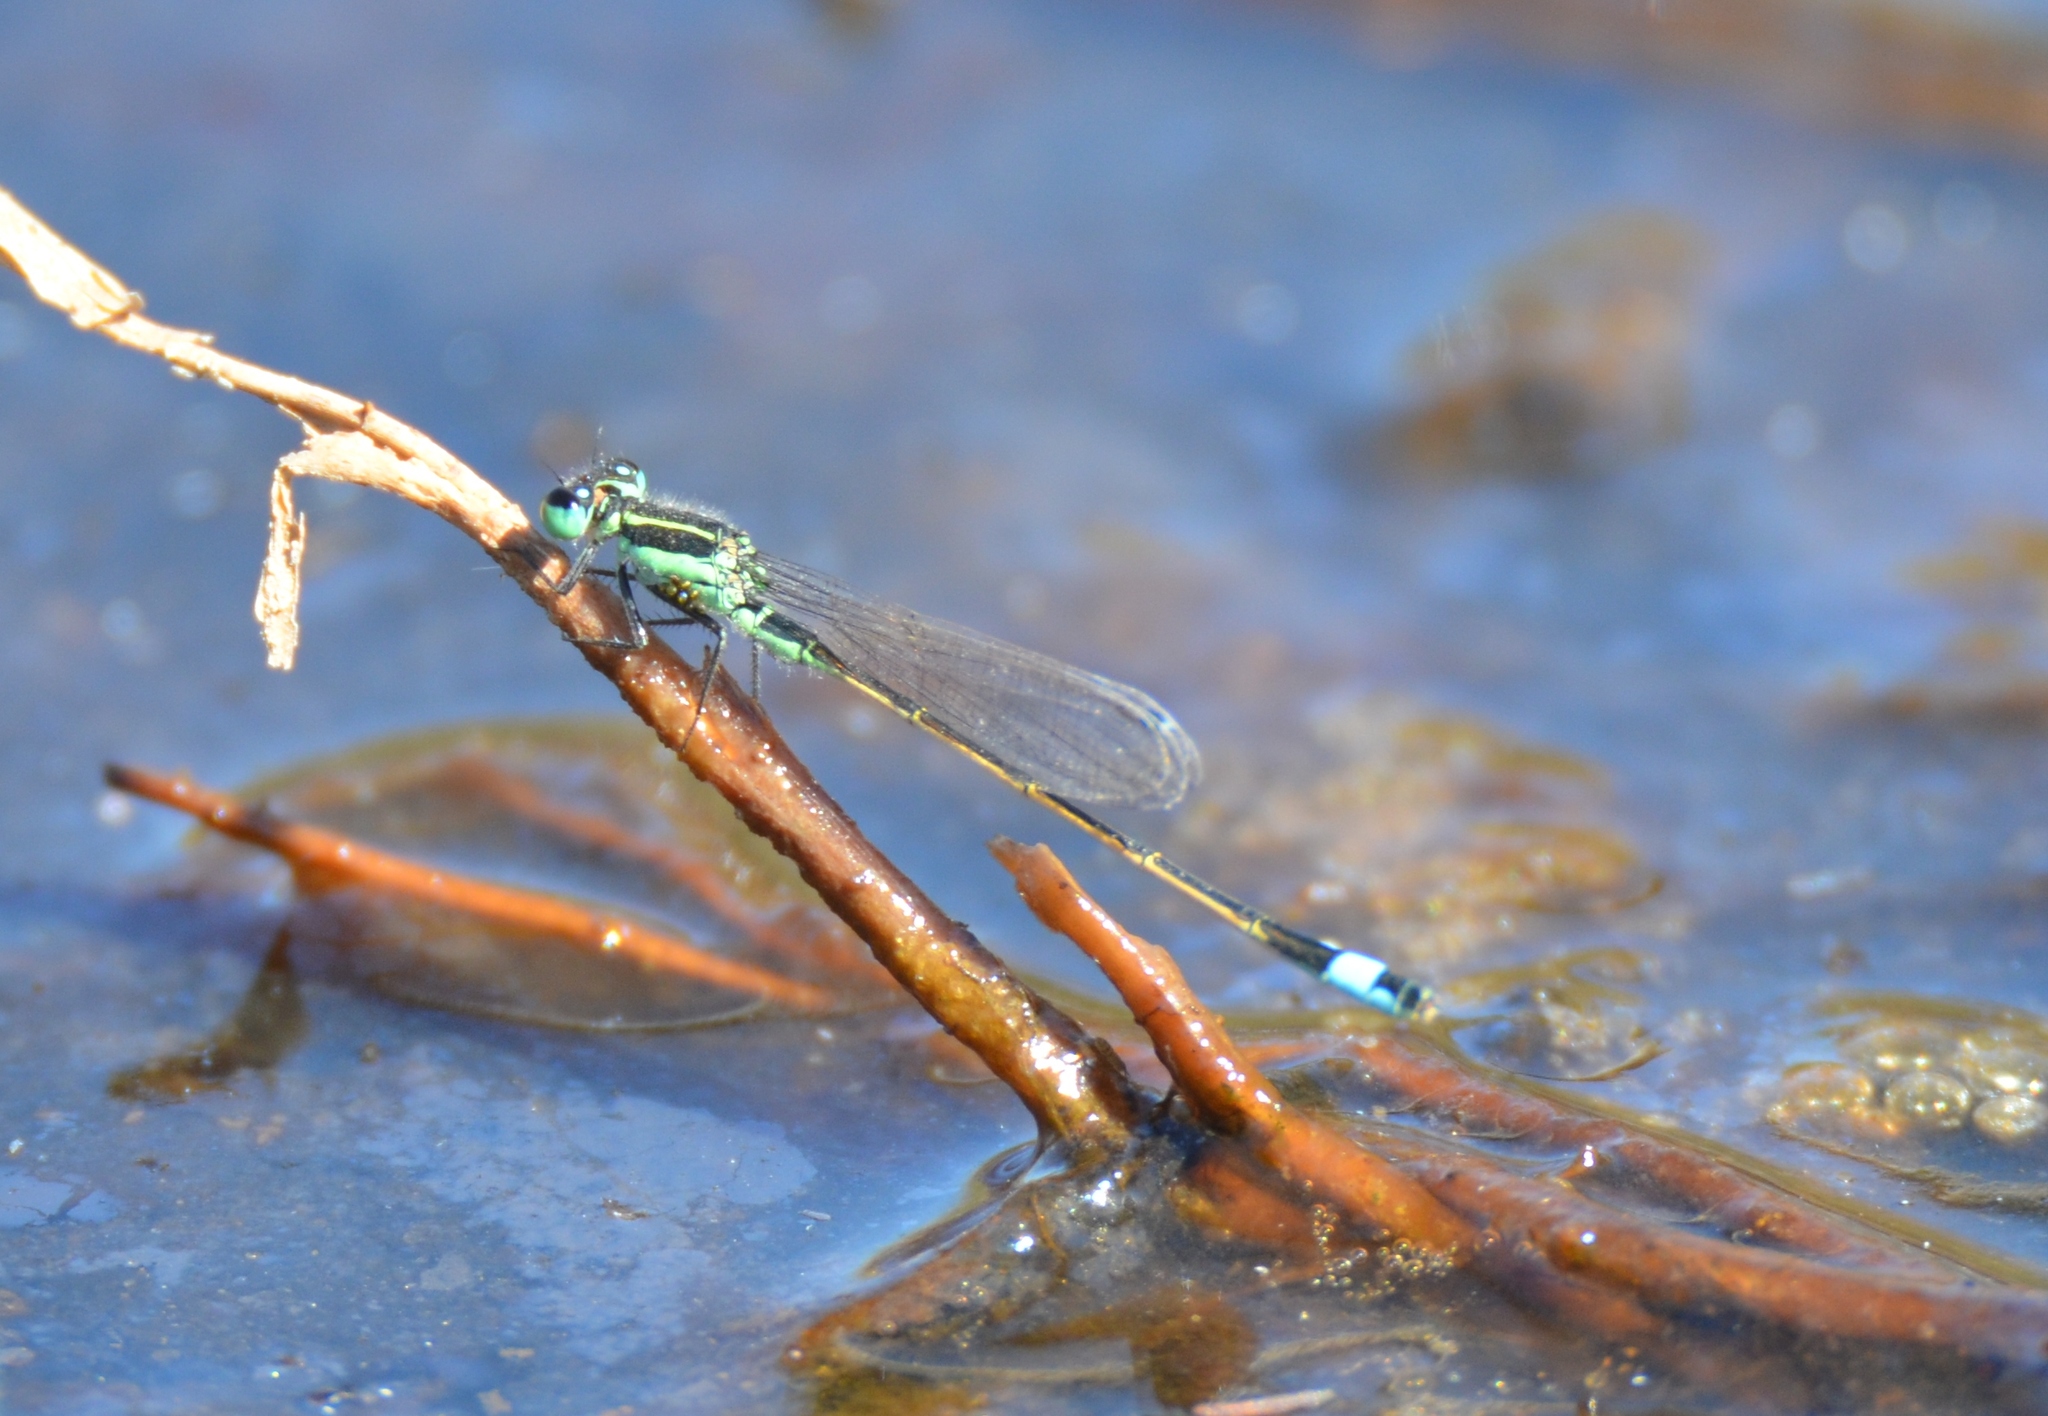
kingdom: Animalia
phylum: Arthropoda
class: Insecta
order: Odonata
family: Coenagrionidae
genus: Ischnura
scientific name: Ischnura ramburii
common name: Rambur's forktail
